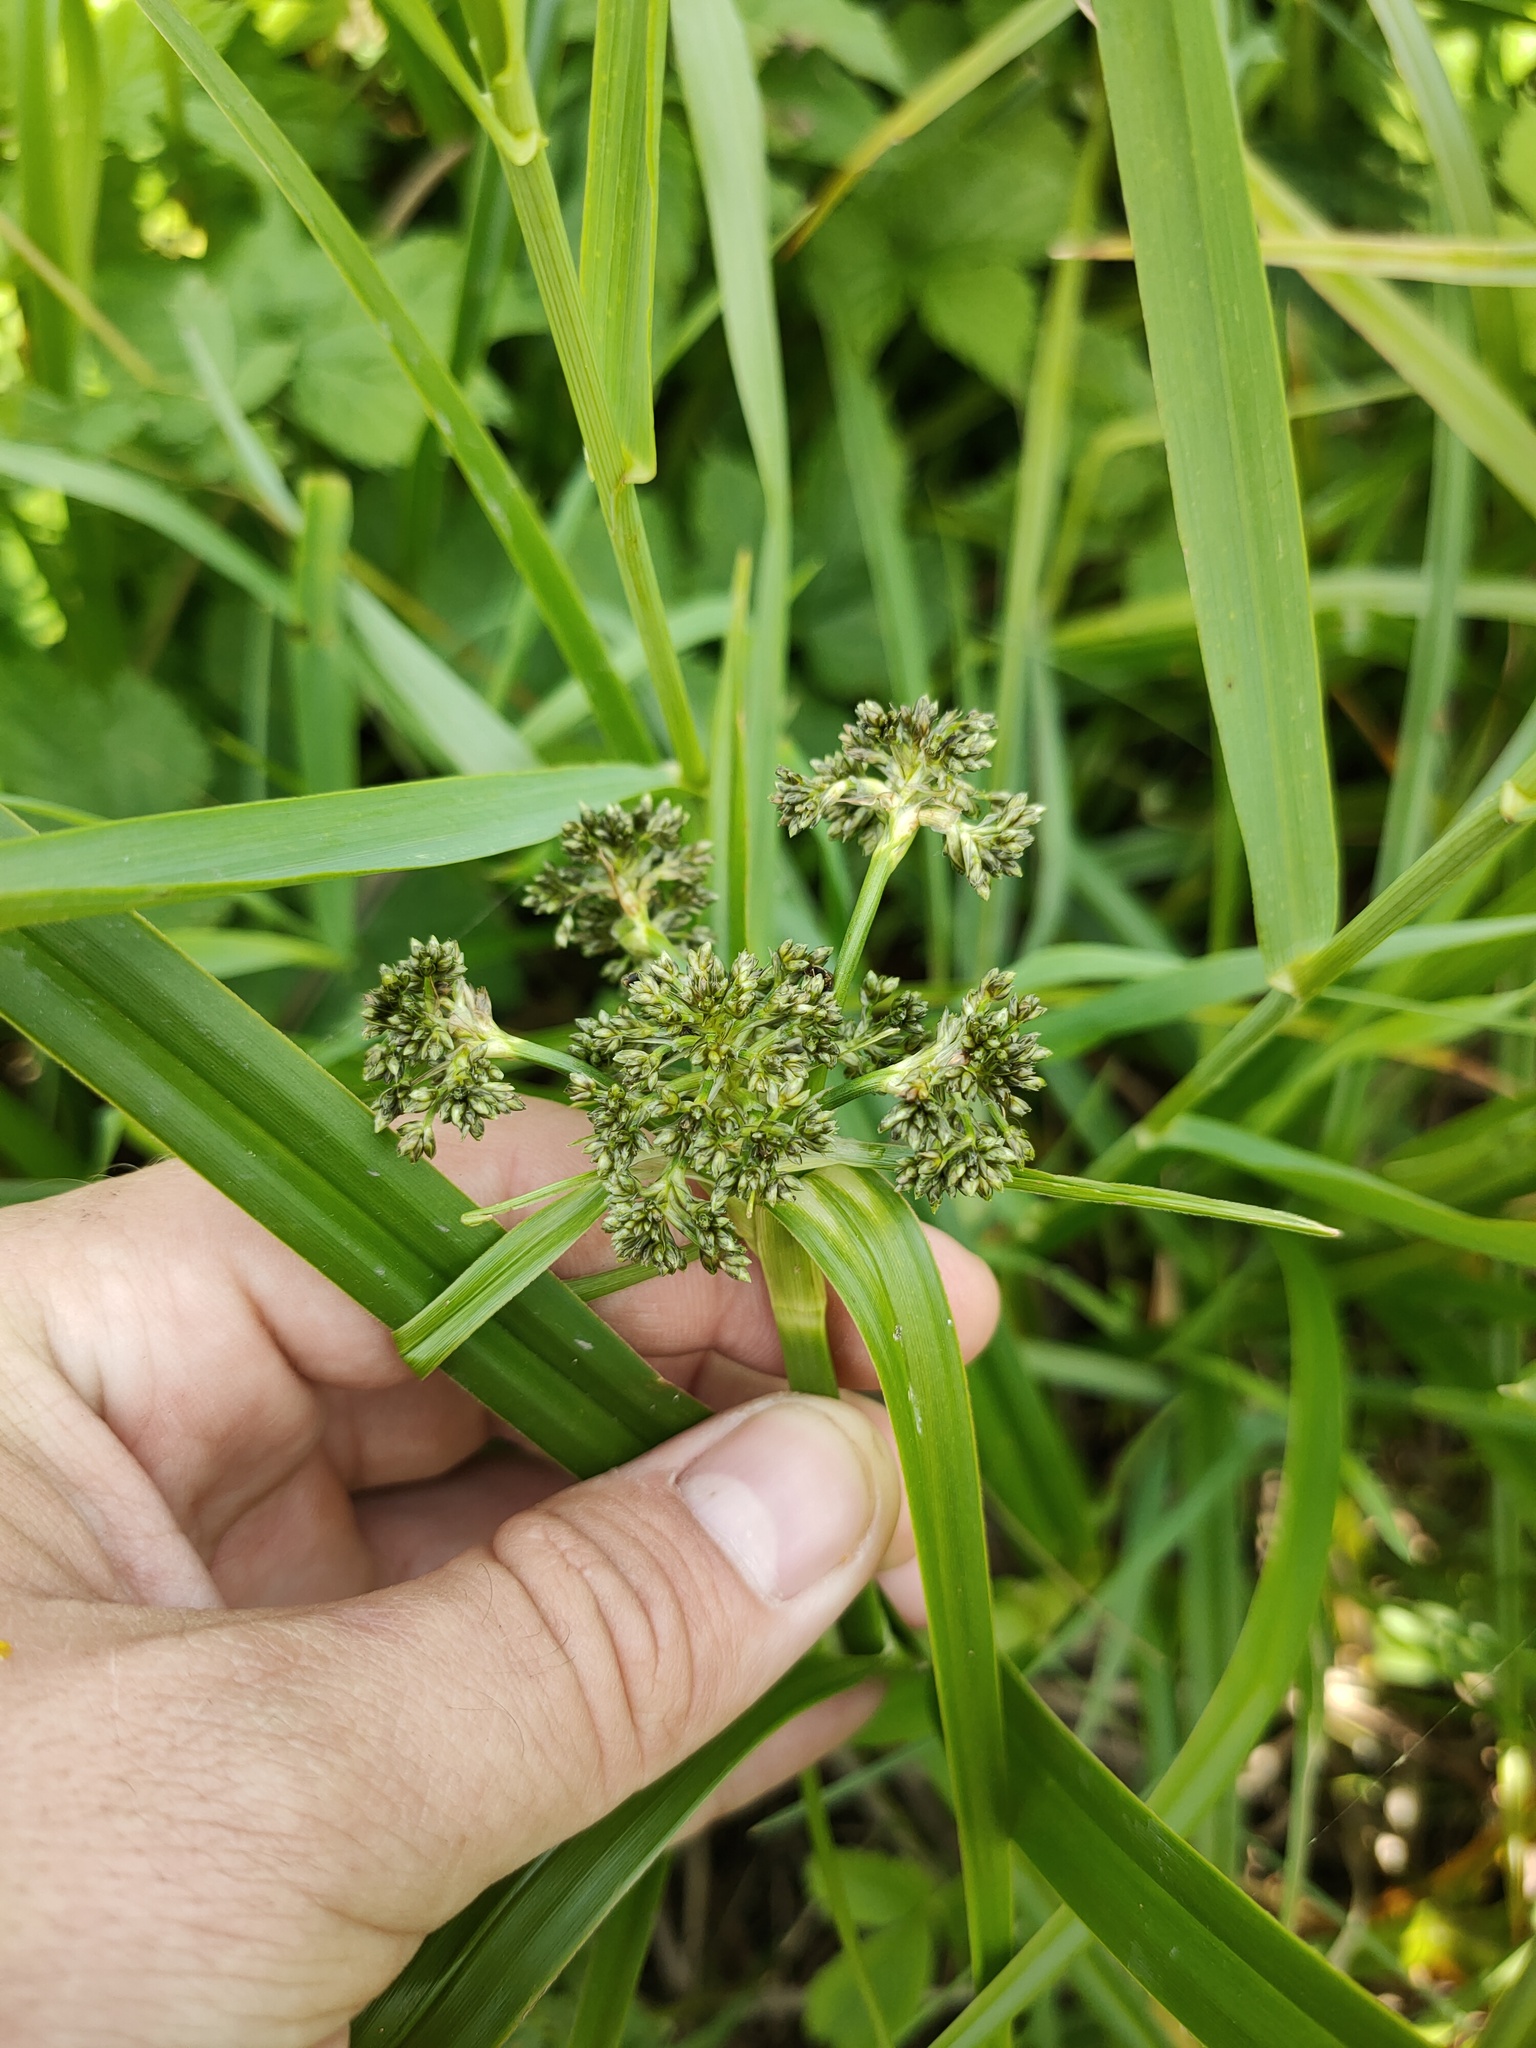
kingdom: Plantae
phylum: Tracheophyta
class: Liliopsida
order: Poales
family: Cyperaceae
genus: Scirpus
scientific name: Scirpus sylvaticus
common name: Wood club-rush
